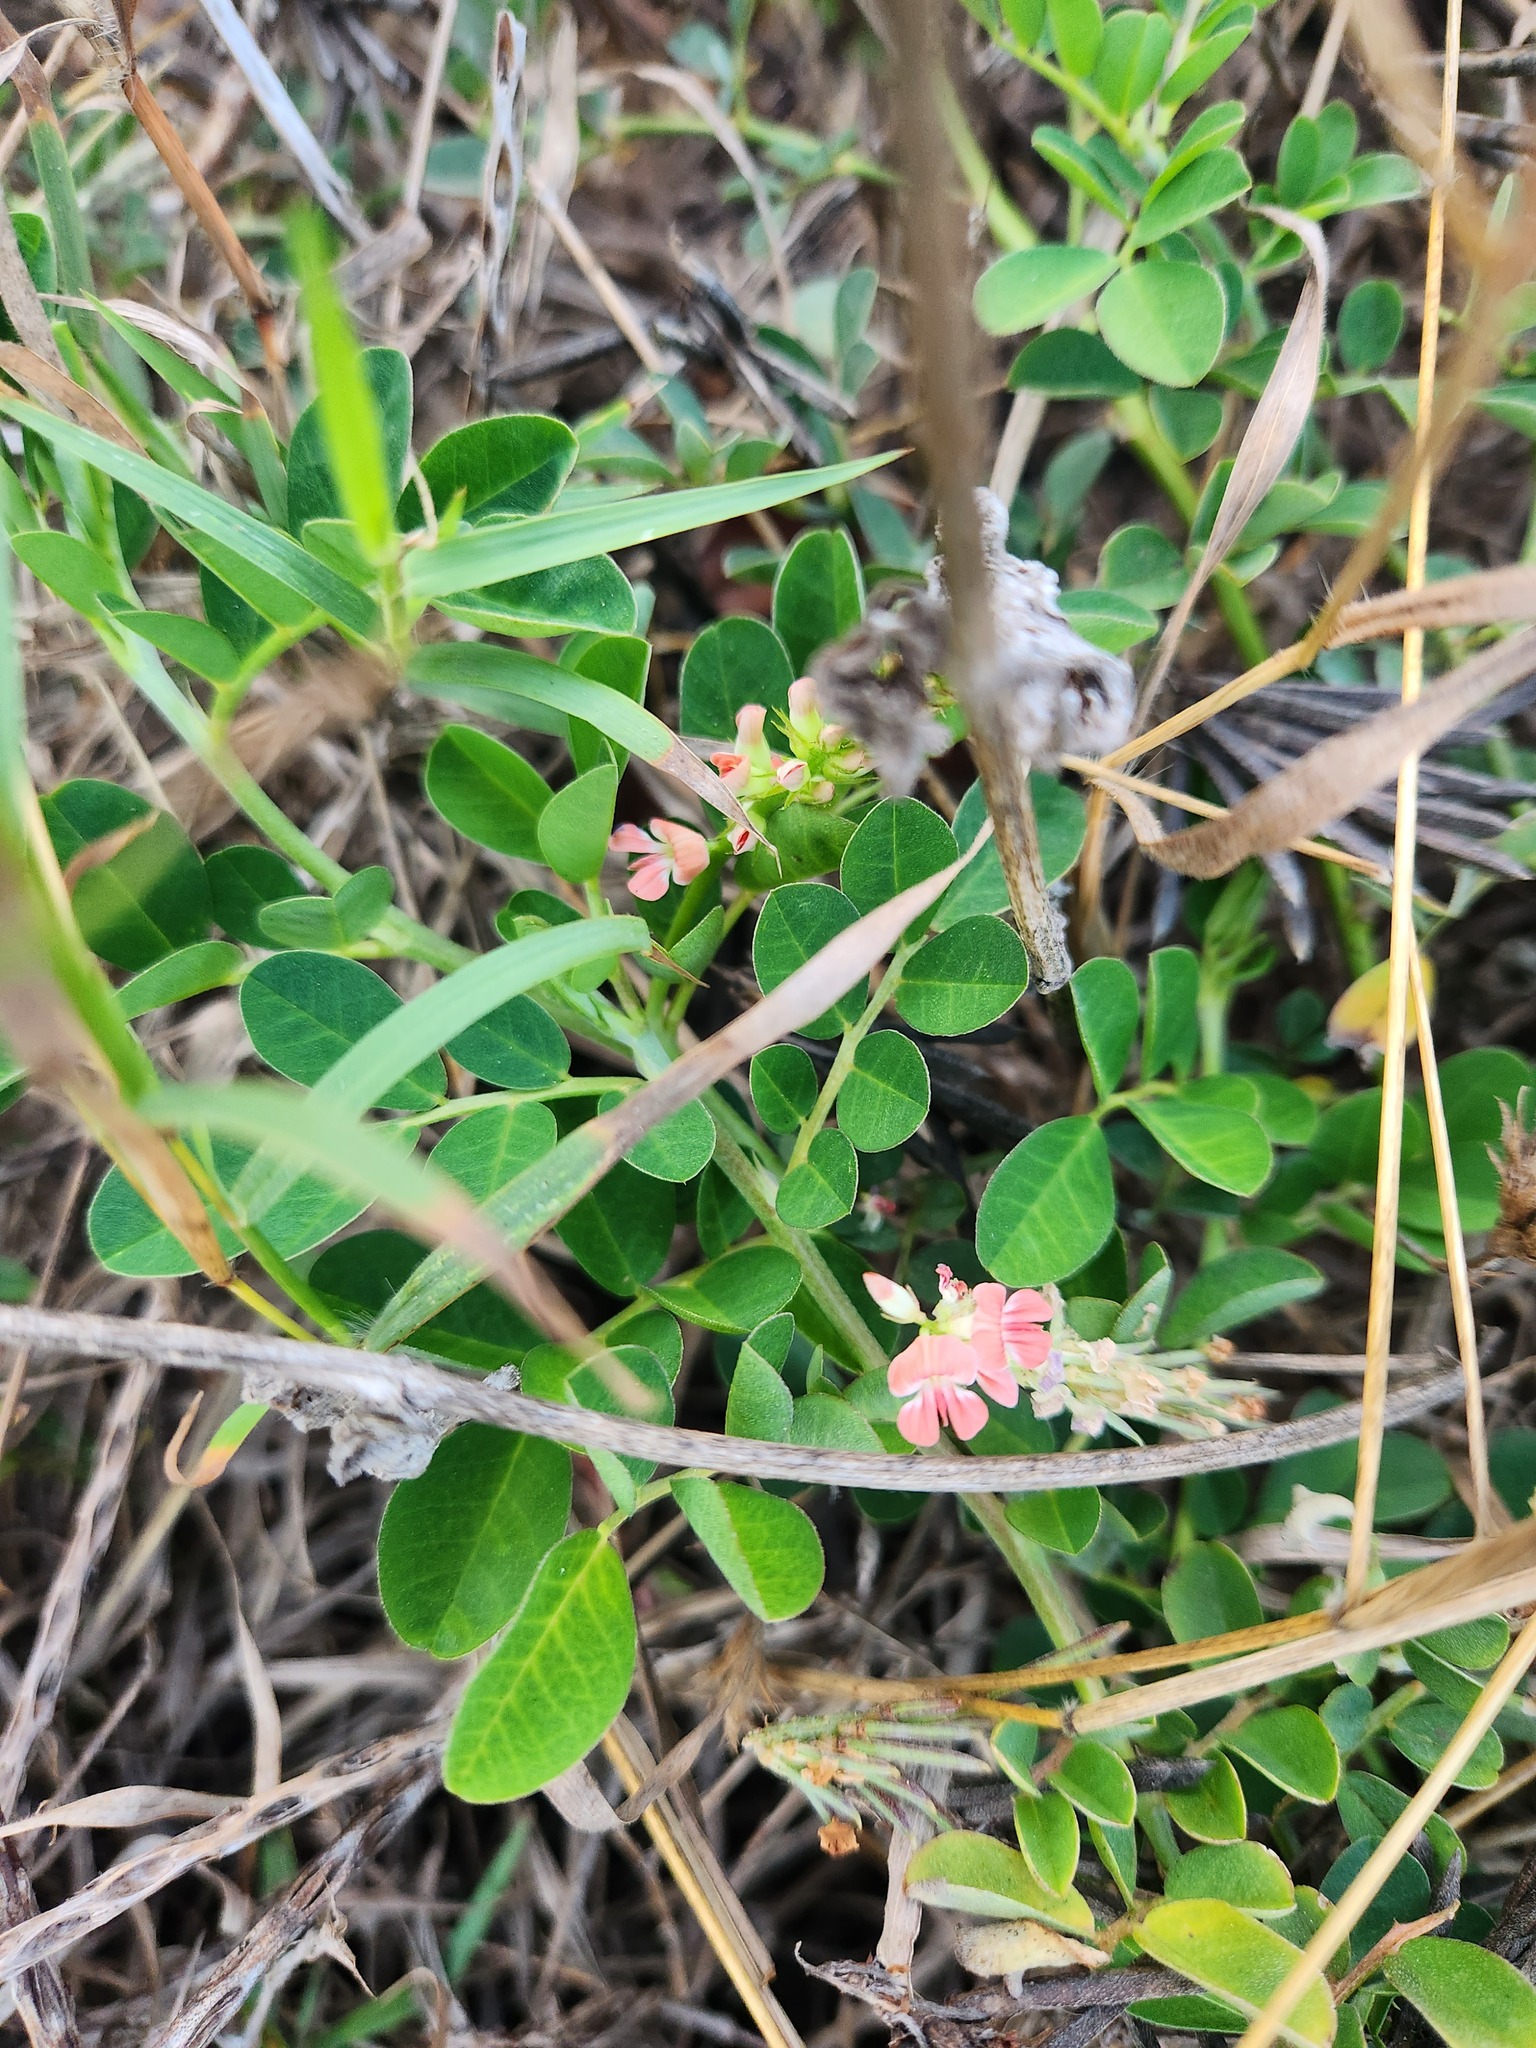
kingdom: Plantae
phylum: Tracheophyta
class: Magnoliopsida
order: Fabales
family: Fabaceae
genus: Indigofera
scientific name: Indigofera spicata
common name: Creeping indigo
